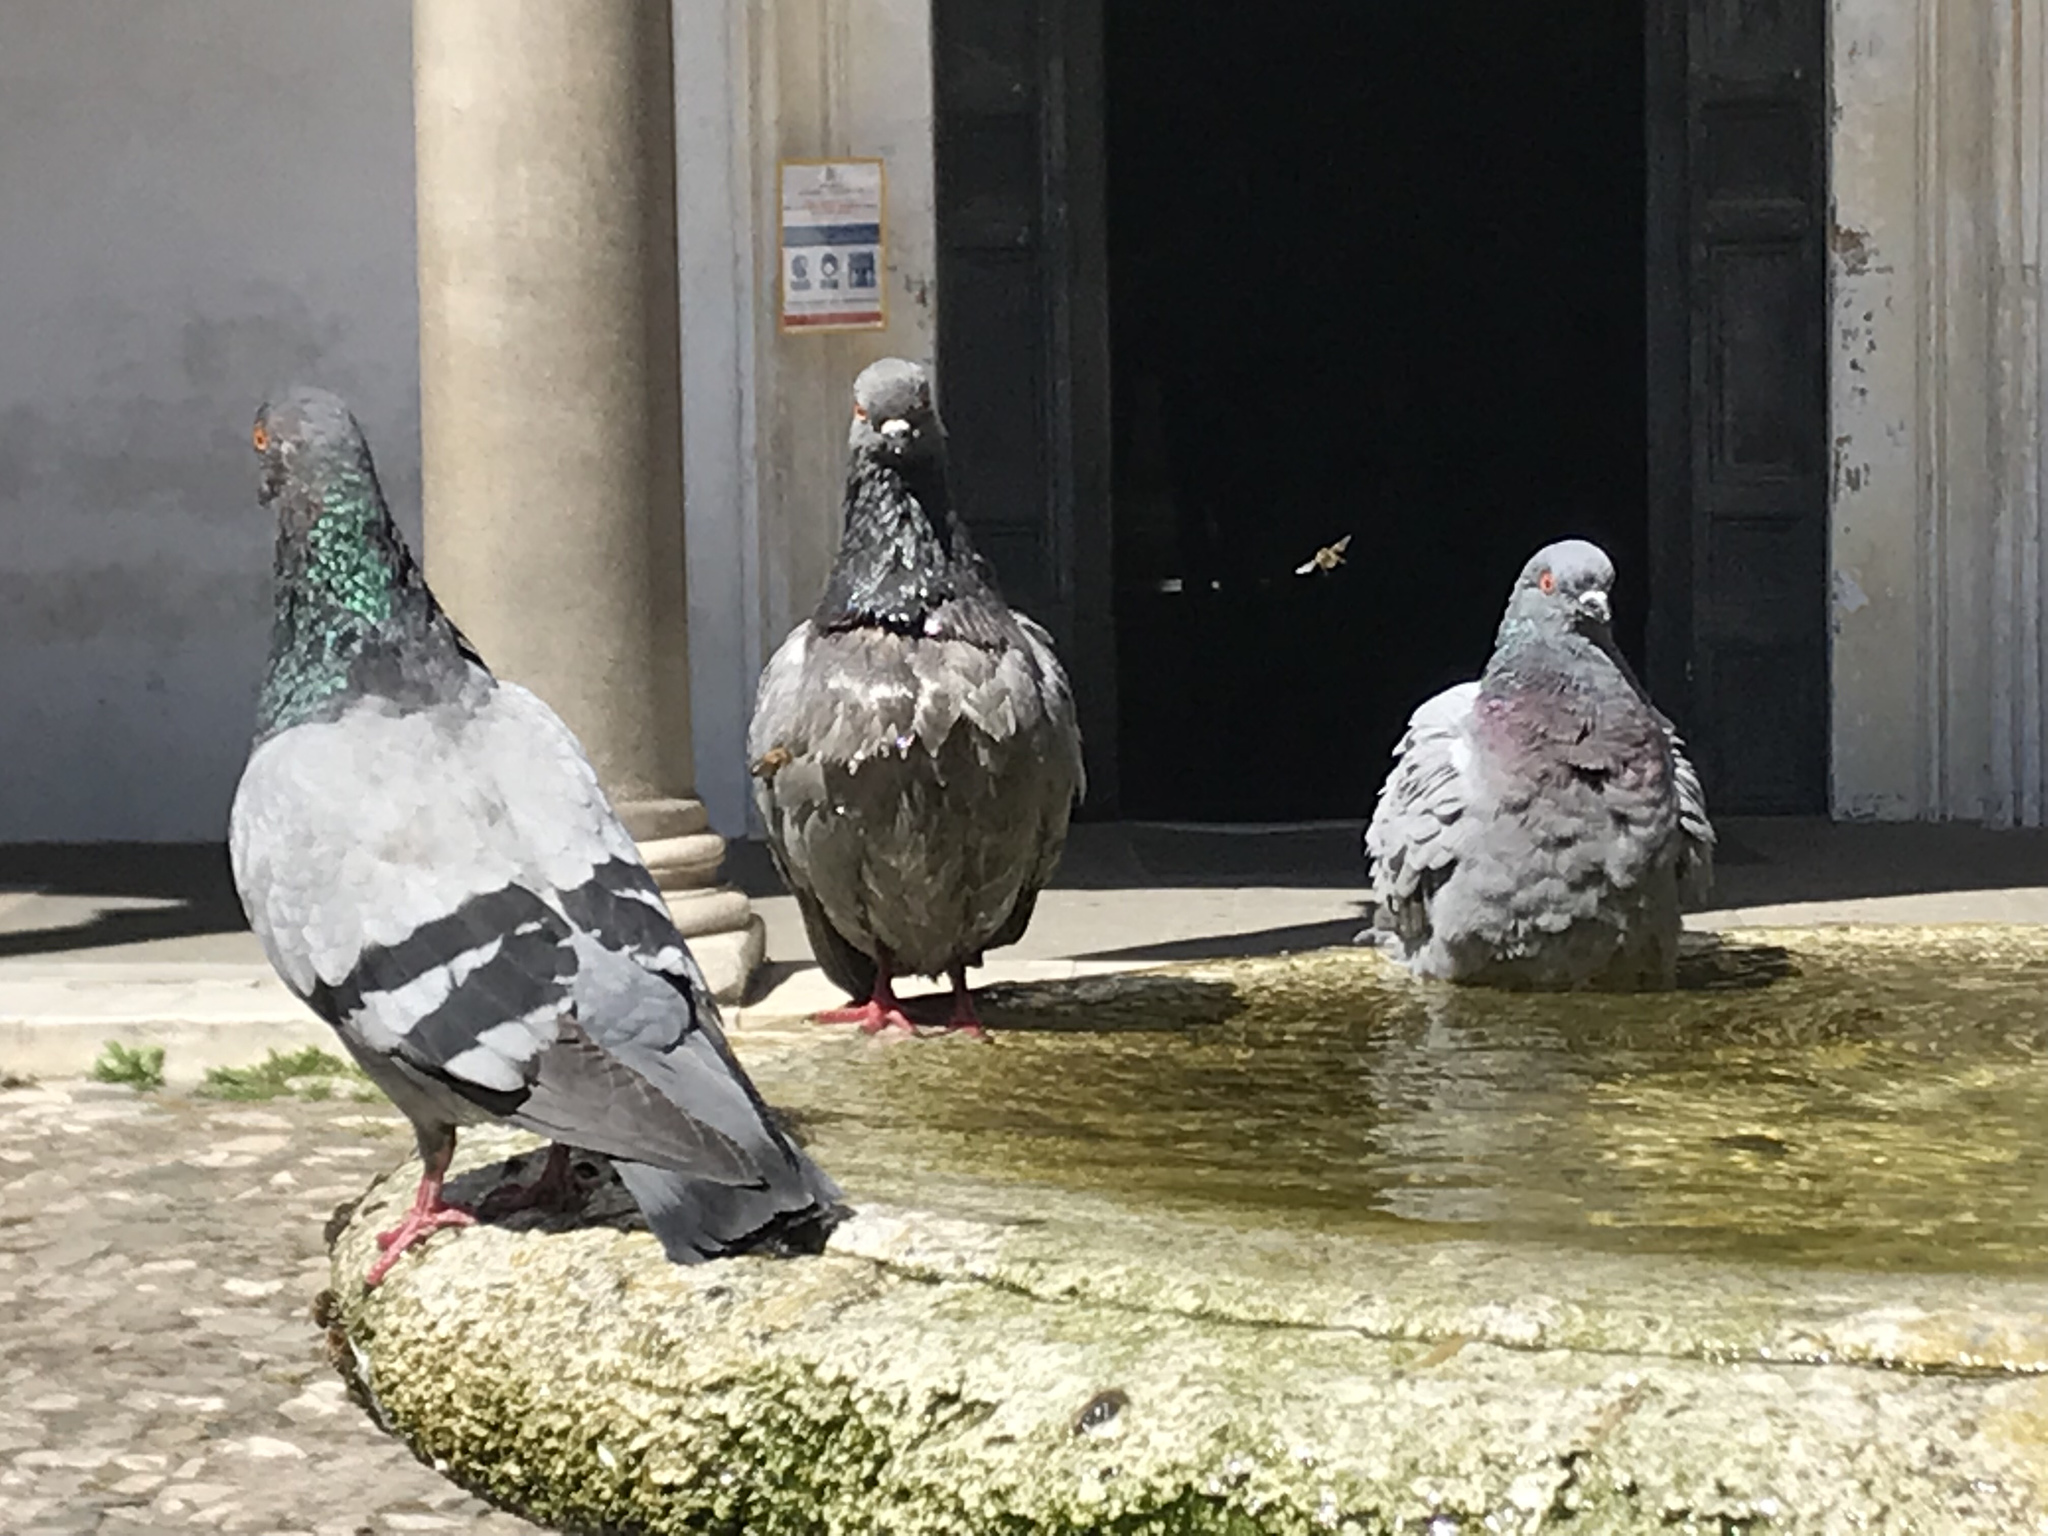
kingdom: Animalia
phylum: Chordata
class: Aves
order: Columbiformes
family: Columbidae
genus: Columba
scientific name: Columba livia
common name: Rock pigeon
